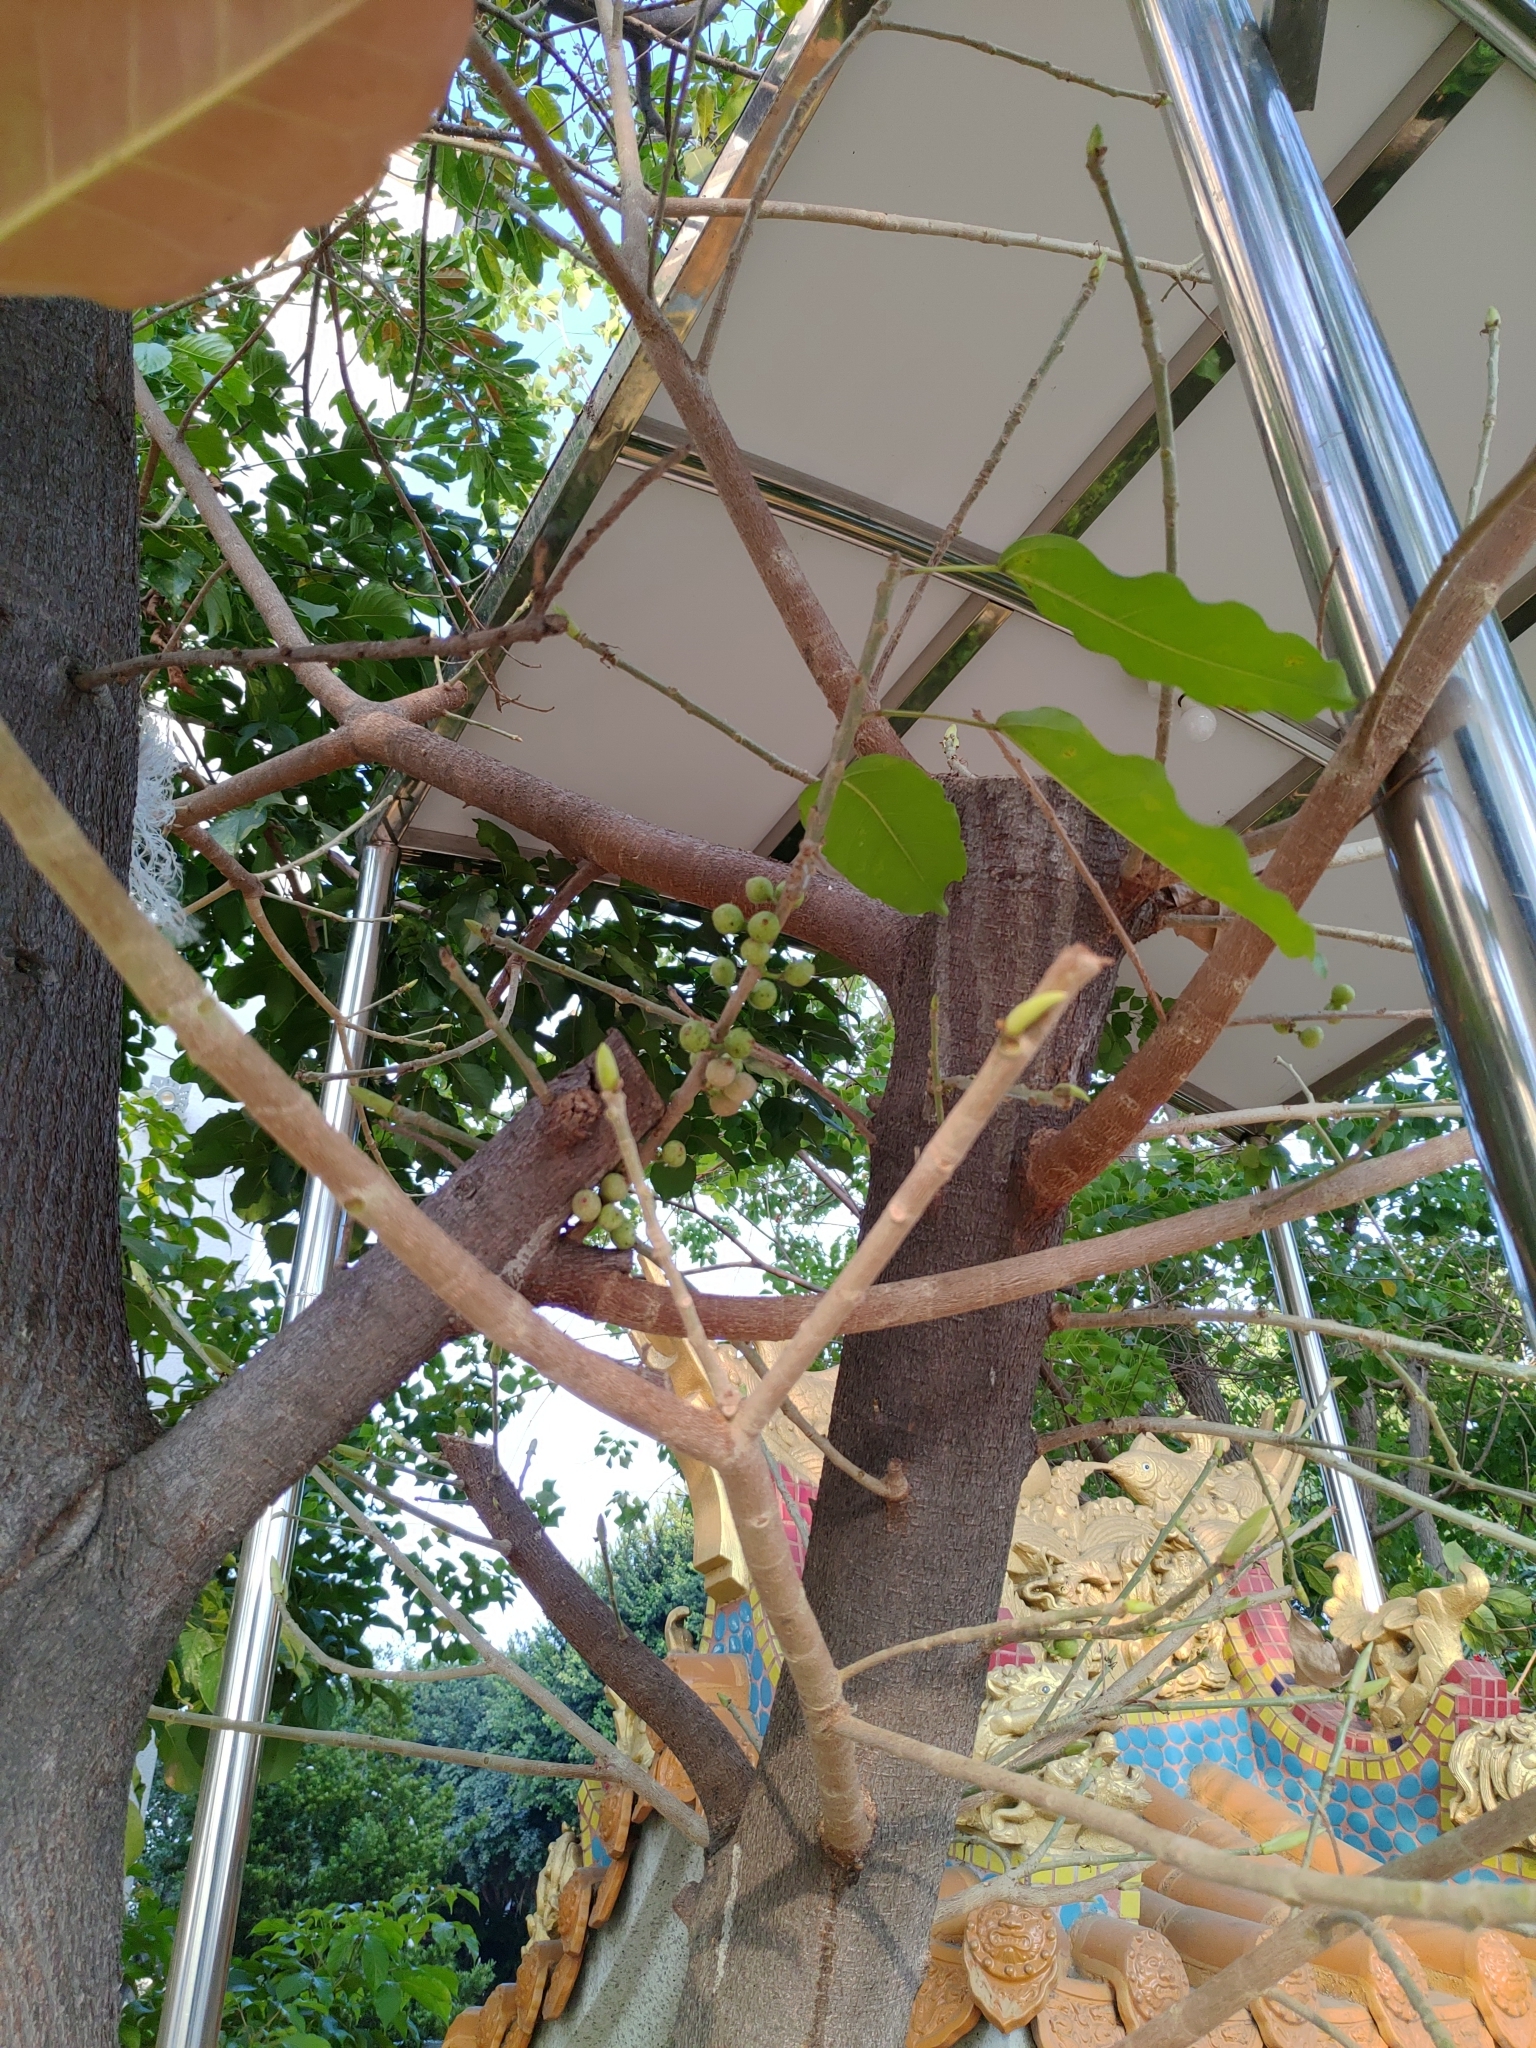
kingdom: Plantae
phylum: Tracheophyta
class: Magnoliopsida
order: Rosales
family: Moraceae
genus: Ficus
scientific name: Ficus subpisocarpa
